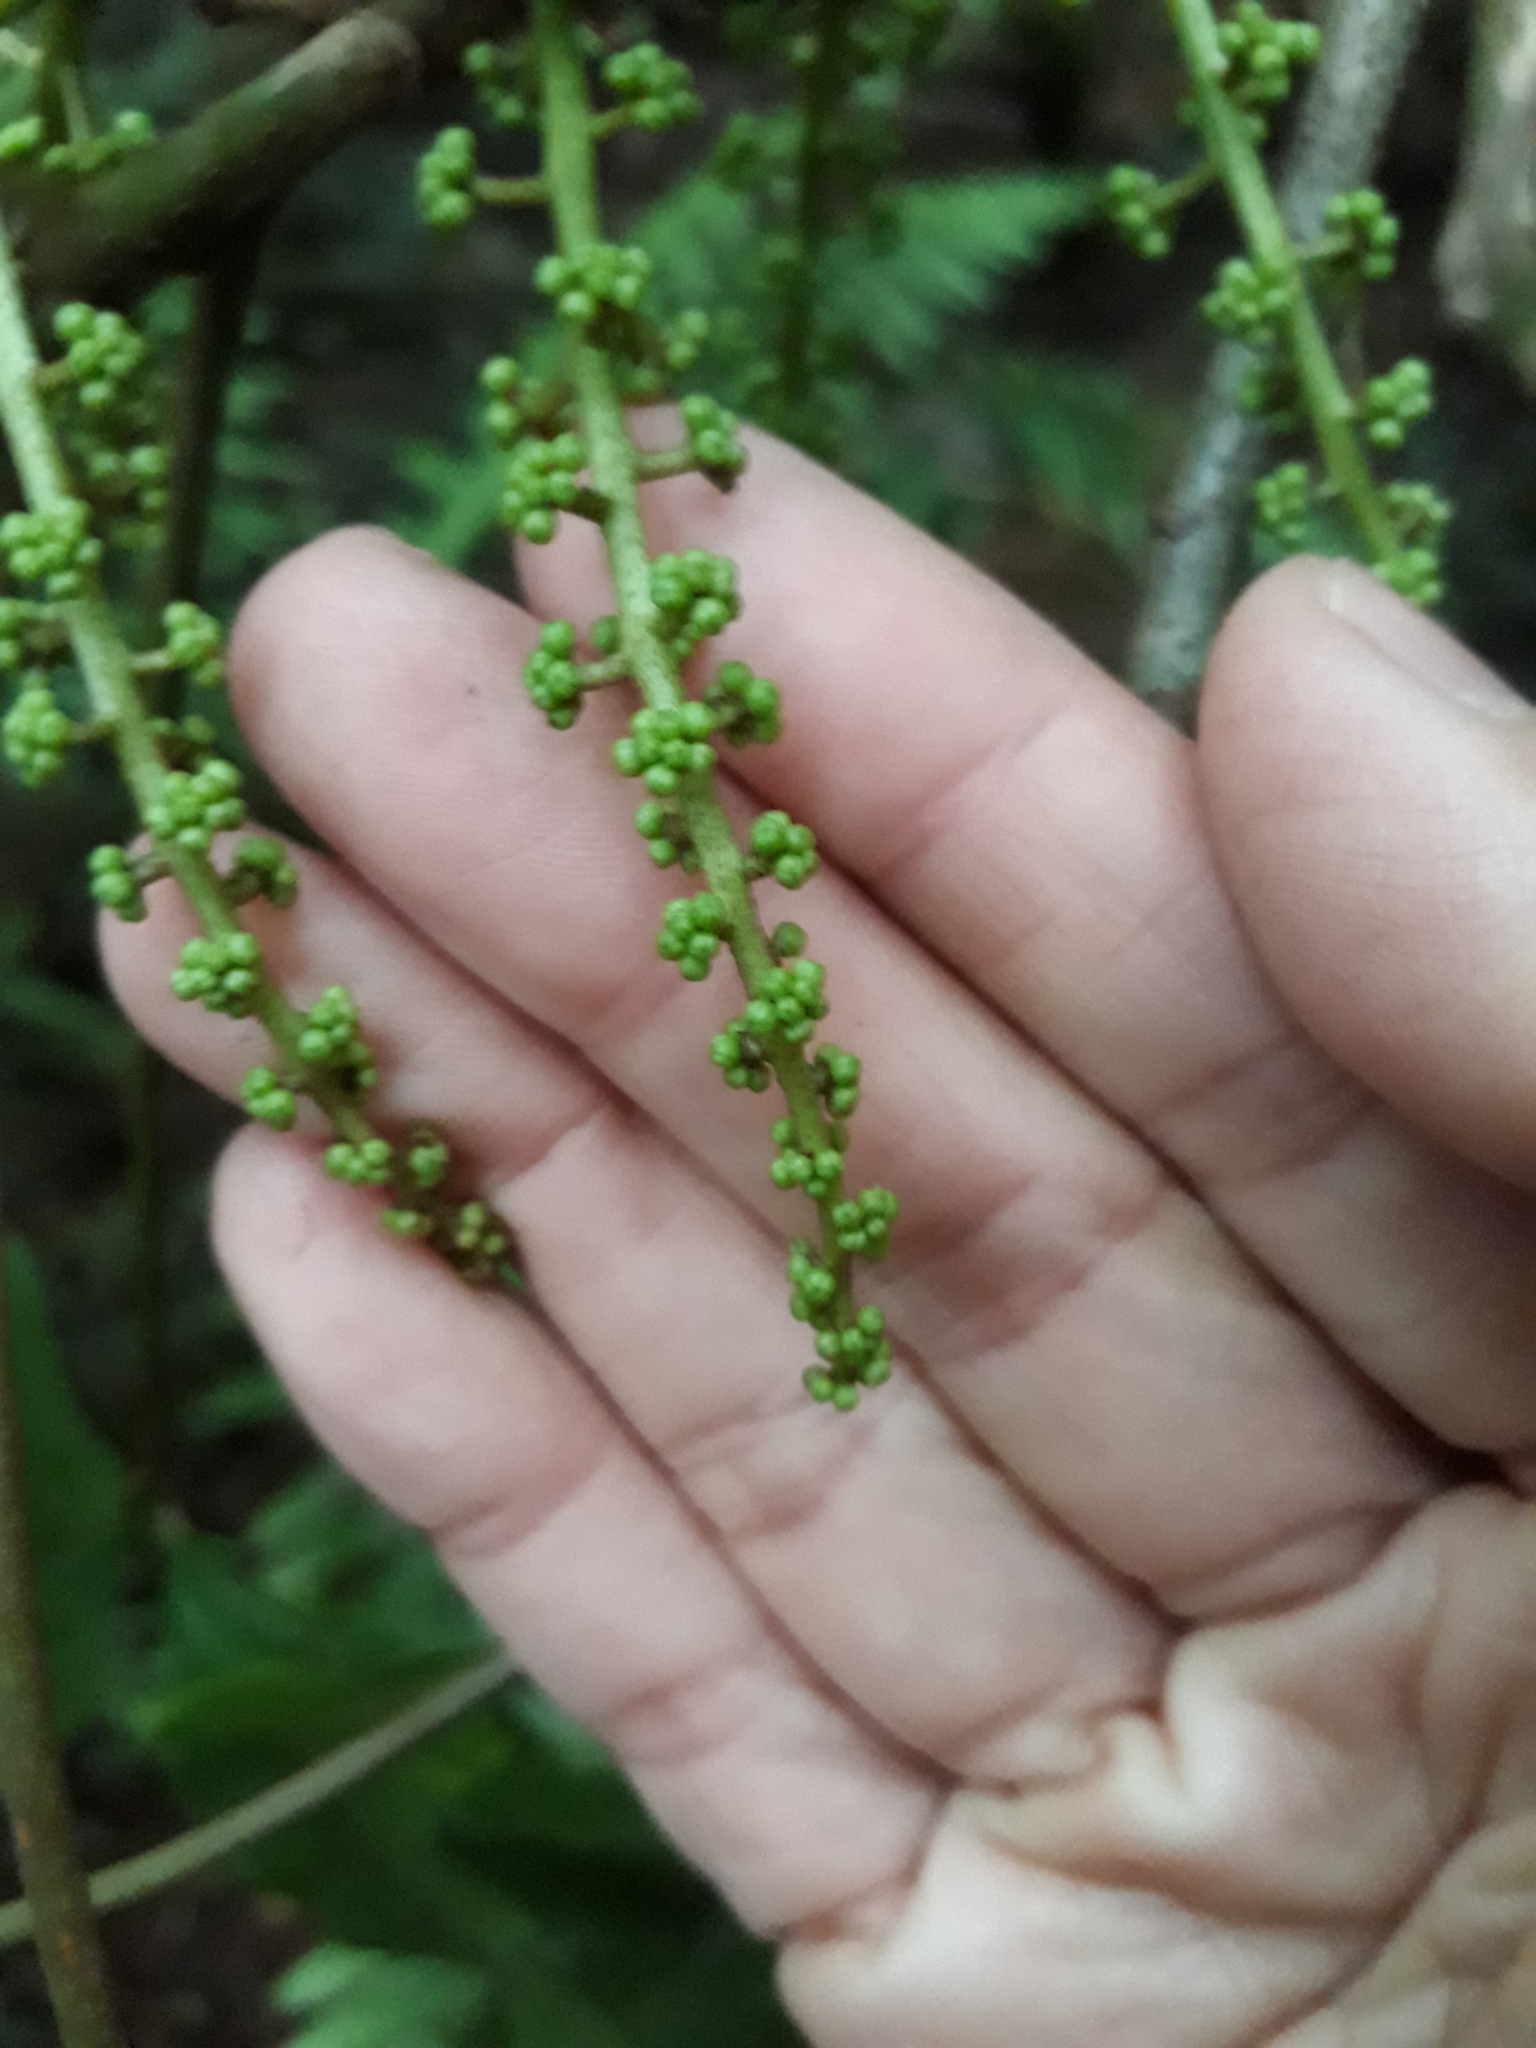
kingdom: Plantae
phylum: Tracheophyta
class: Magnoliopsida
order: Apiales
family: Araliaceae
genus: Schefflera
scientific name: Schefflera digitata
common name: Pate
